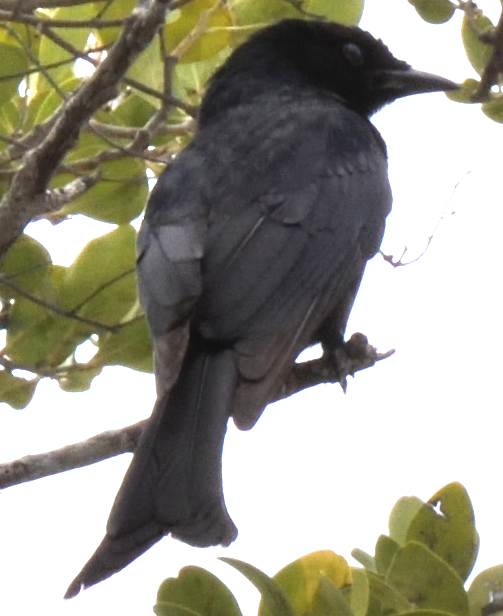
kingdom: Animalia
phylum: Chordata
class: Aves
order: Passeriformes
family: Dicruridae
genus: Dicrurus
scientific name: Dicrurus adsimilis
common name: Fork-tailed drongo
